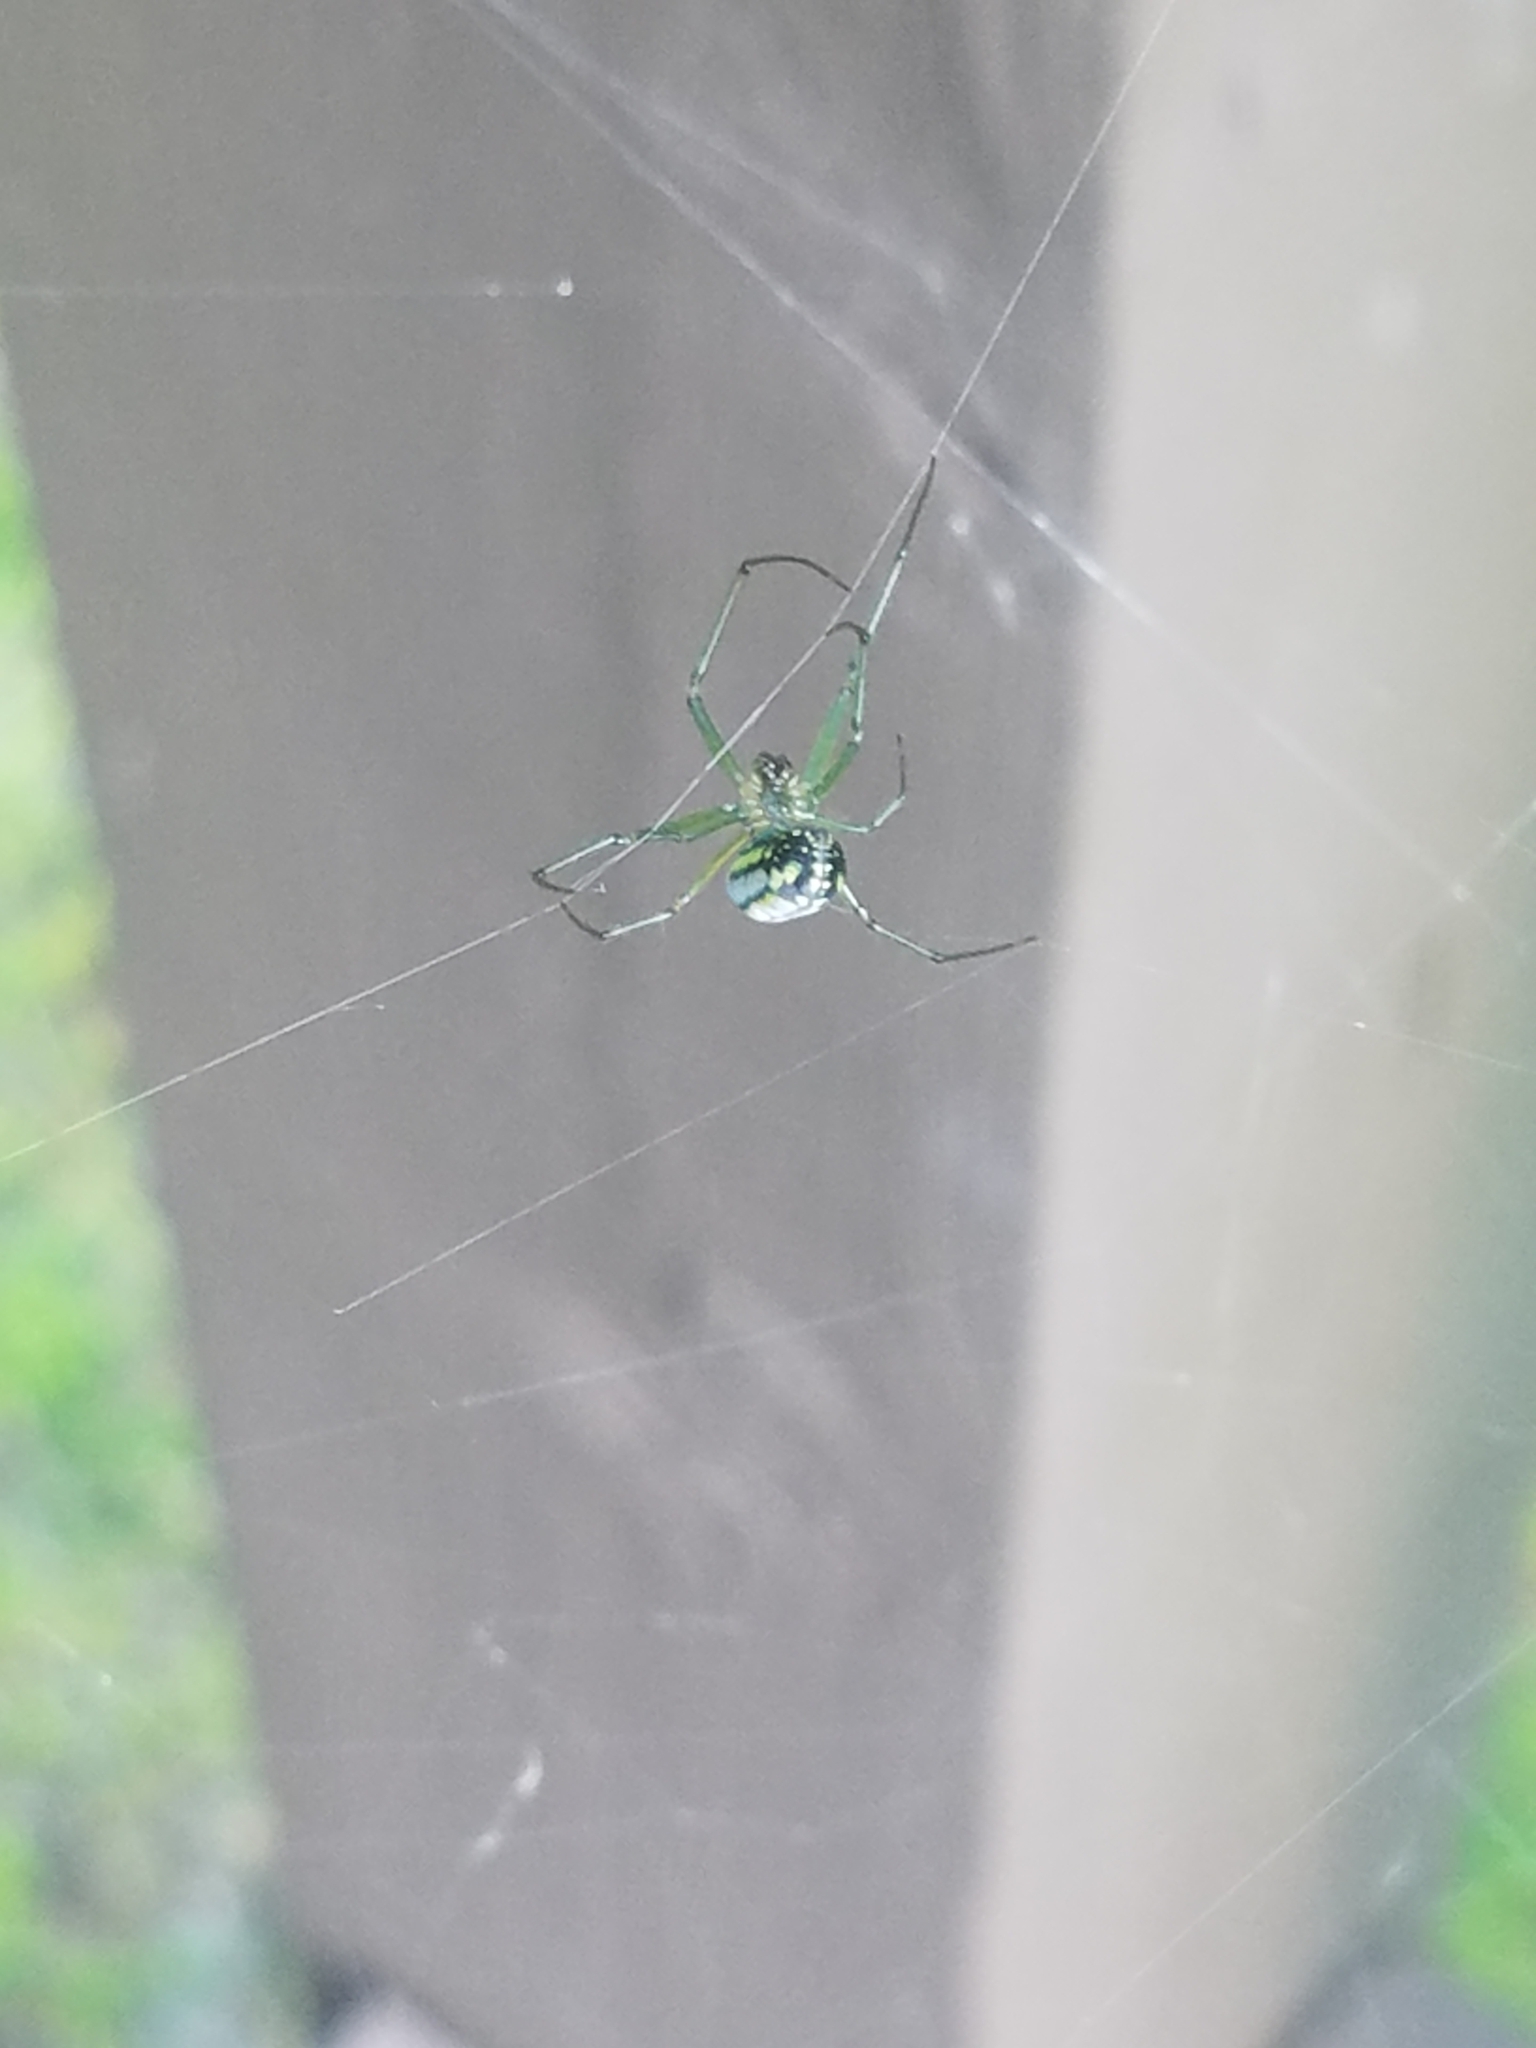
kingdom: Animalia
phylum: Arthropoda
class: Arachnida
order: Araneae
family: Tetragnathidae
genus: Leucauge
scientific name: Leucauge venusta
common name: Longjawed orb weavers
